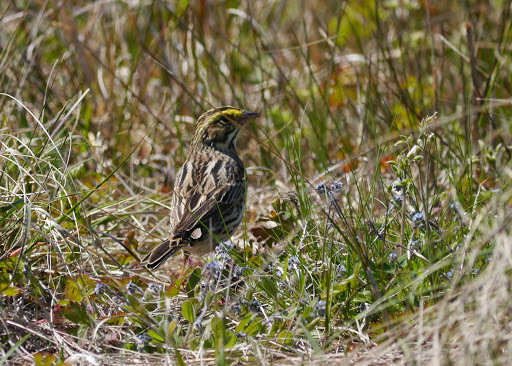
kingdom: Animalia
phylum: Chordata
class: Aves
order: Passeriformes
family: Passerellidae
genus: Passerculus
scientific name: Passerculus sandwichensis
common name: Savannah sparrow
